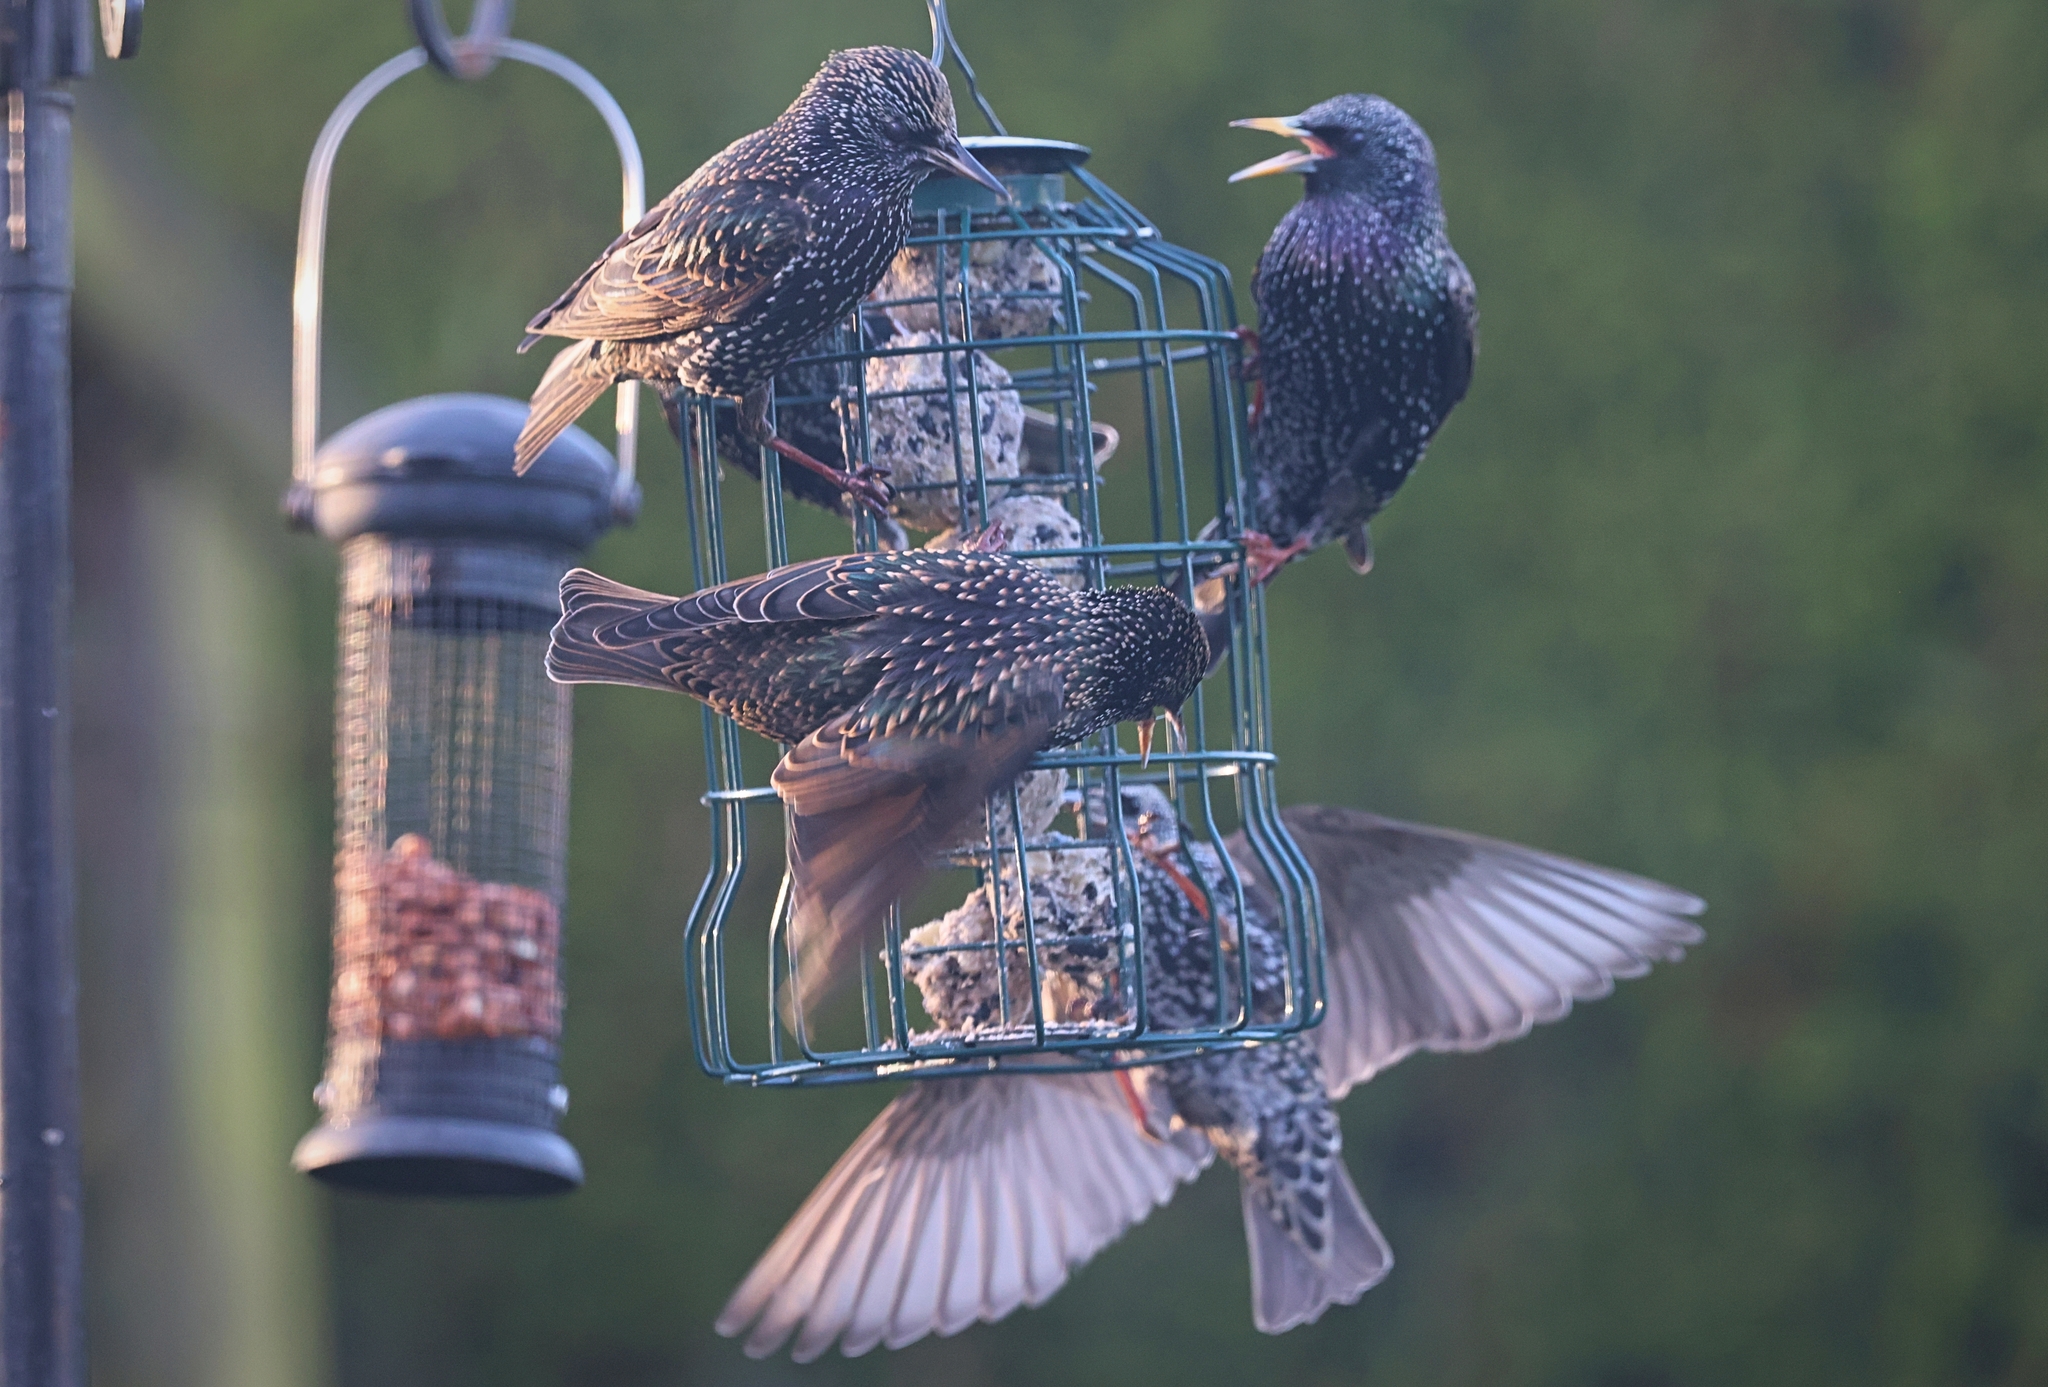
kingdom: Animalia
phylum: Chordata
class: Aves
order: Passeriformes
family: Sturnidae
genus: Sturnus
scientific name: Sturnus vulgaris
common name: Common starling
